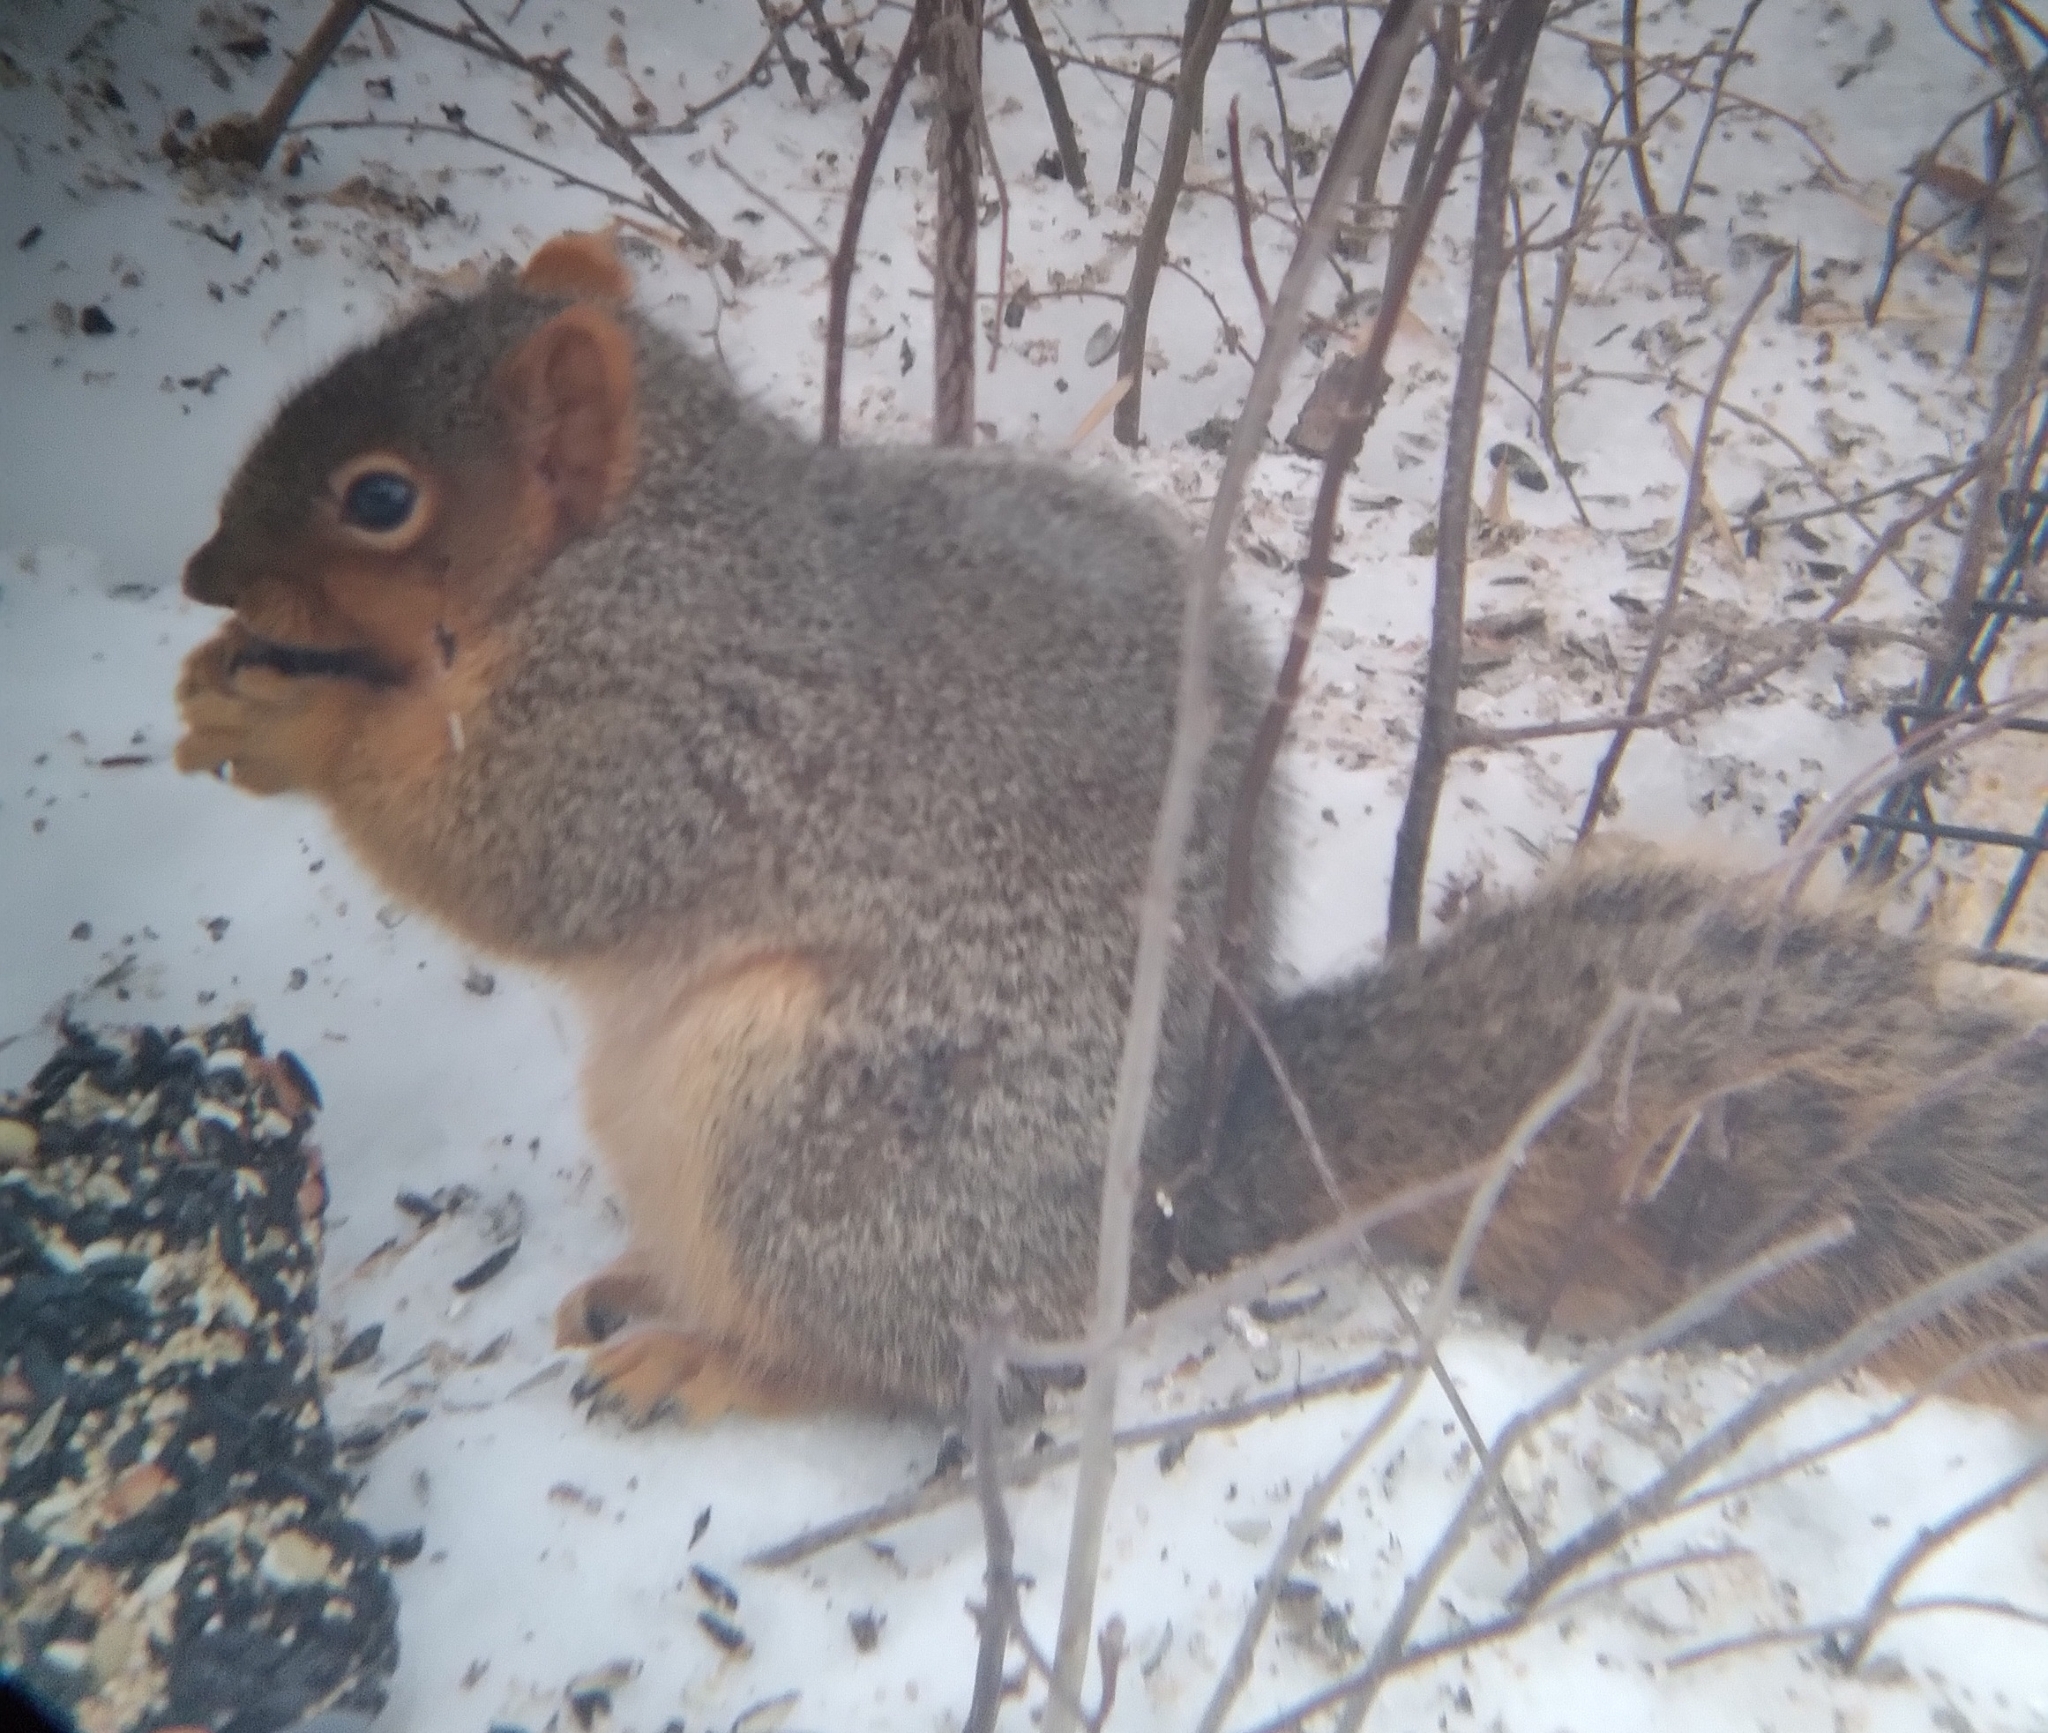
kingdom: Animalia
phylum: Chordata
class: Mammalia
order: Rodentia
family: Sciuridae
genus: Sciurus
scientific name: Sciurus niger
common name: Fox squirrel
